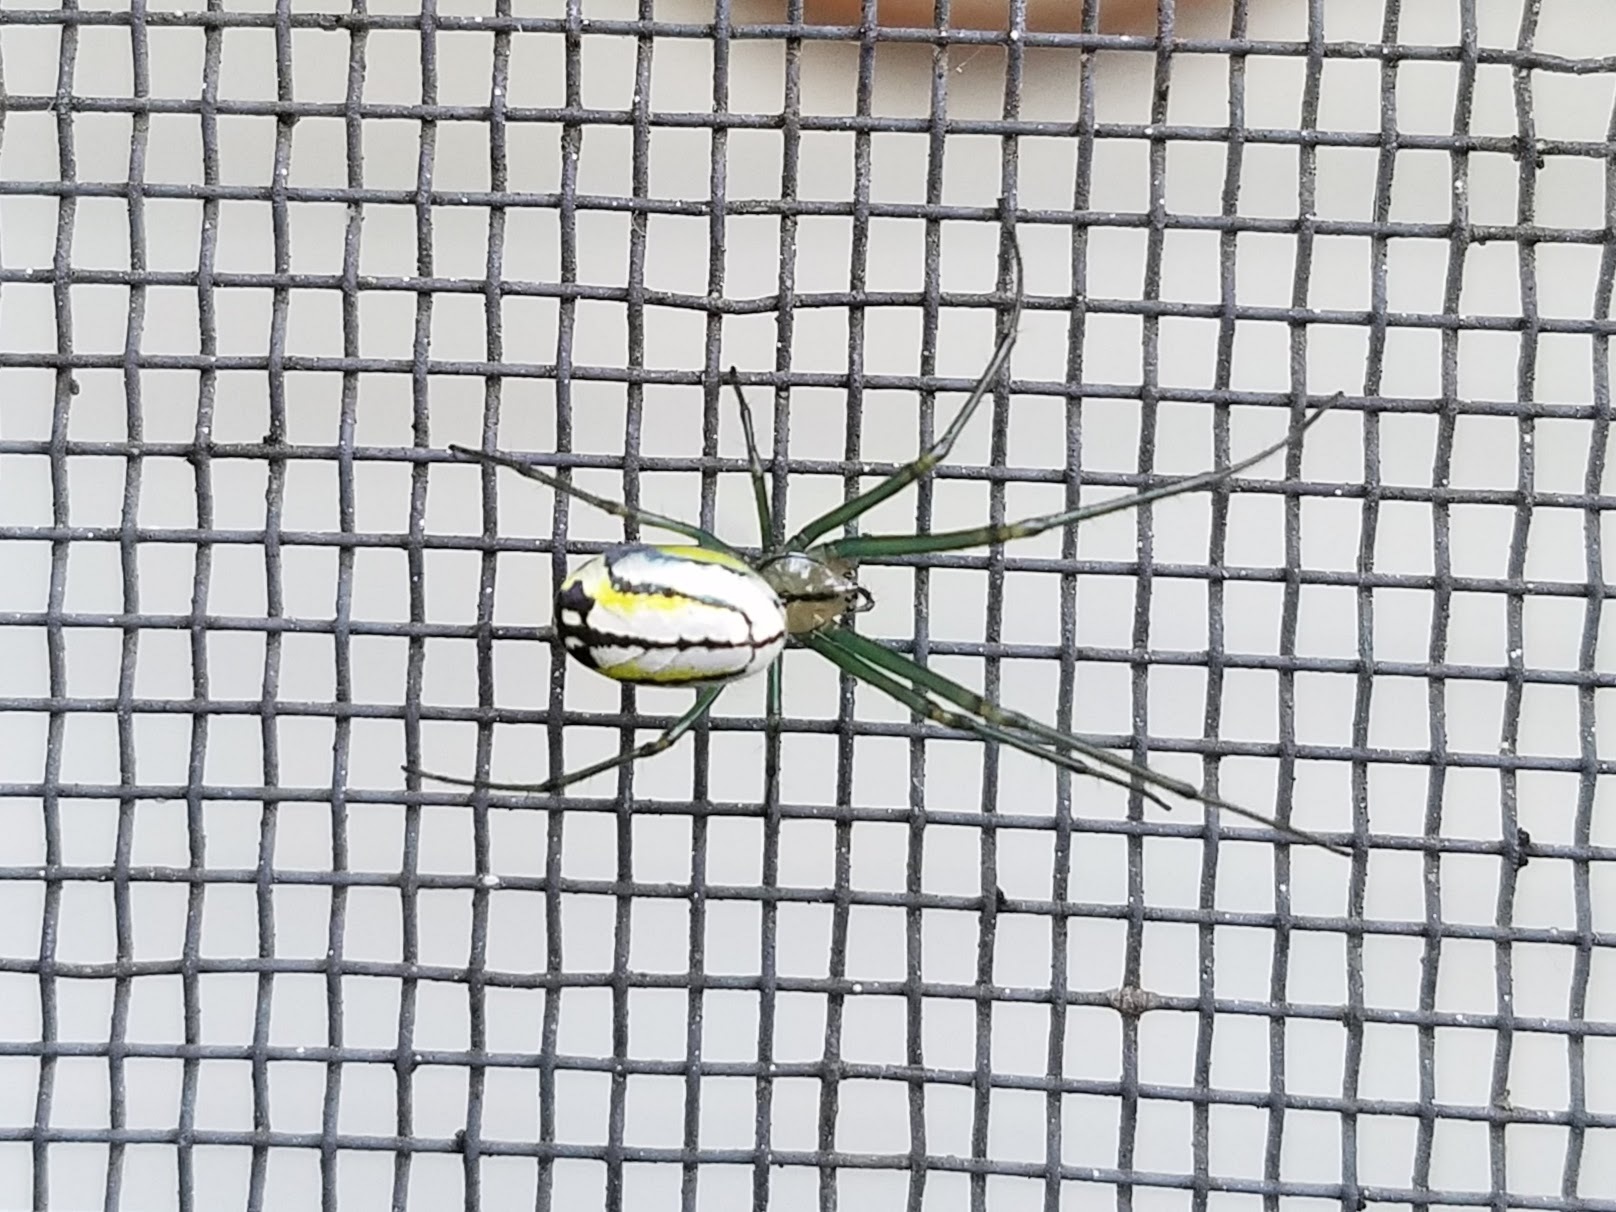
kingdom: Animalia
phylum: Arthropoda
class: Arachnida
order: Araneae
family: Tetragnathidae
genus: Leucauge
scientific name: Leucauge venusta
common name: Longjawed orb weavers
